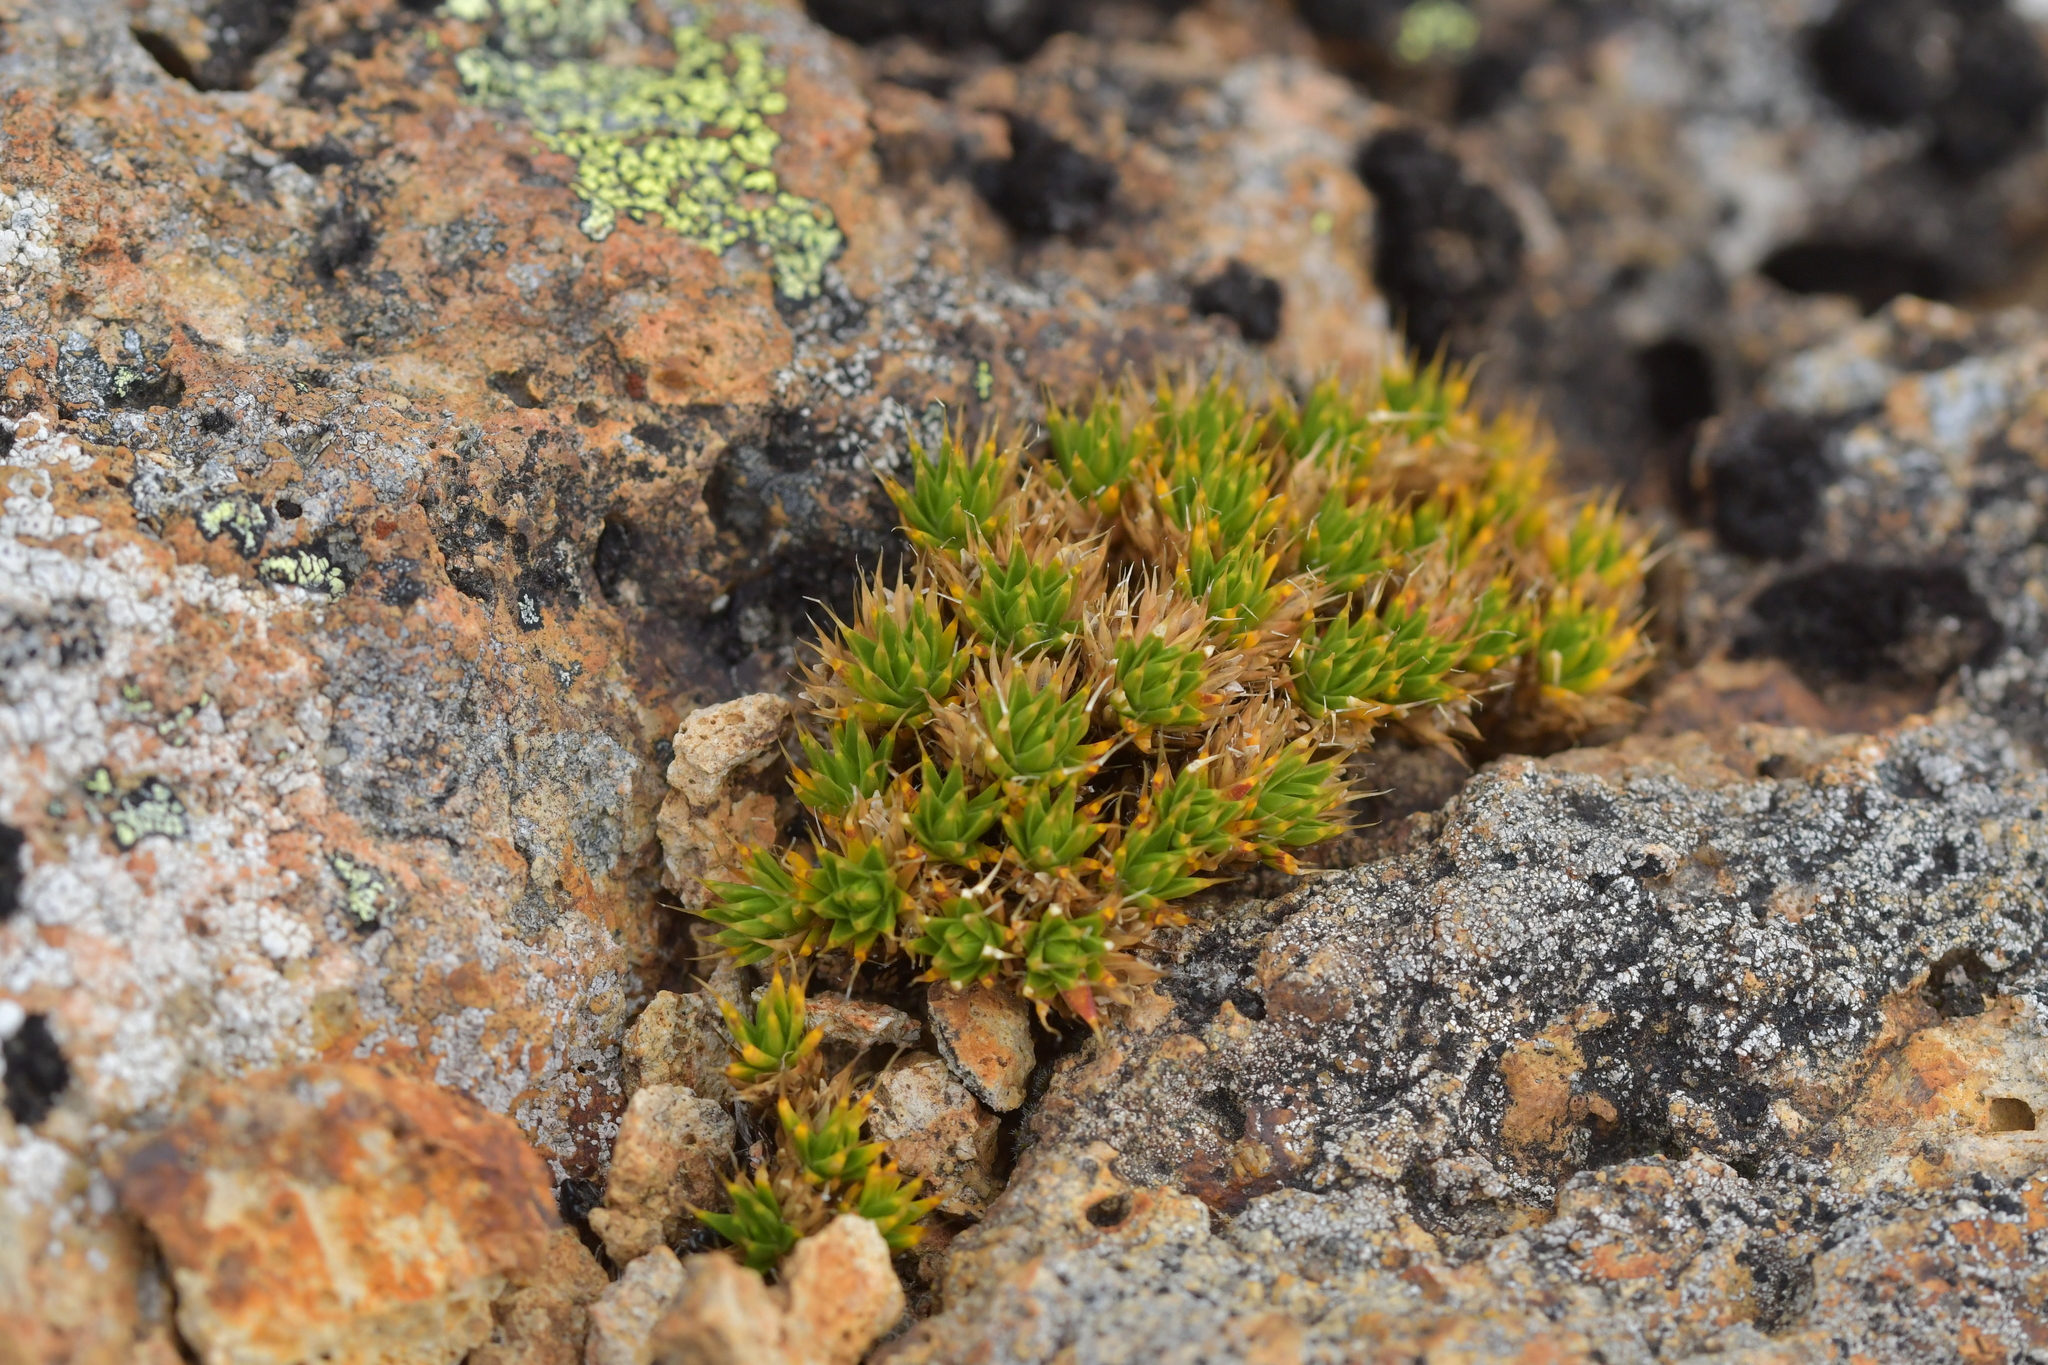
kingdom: Plantae
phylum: Tracheophyta
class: Magnoliopsida
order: Caryophyllales
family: Caryophyllaceae
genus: Colobanthus
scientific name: Colobanthus acicularis
